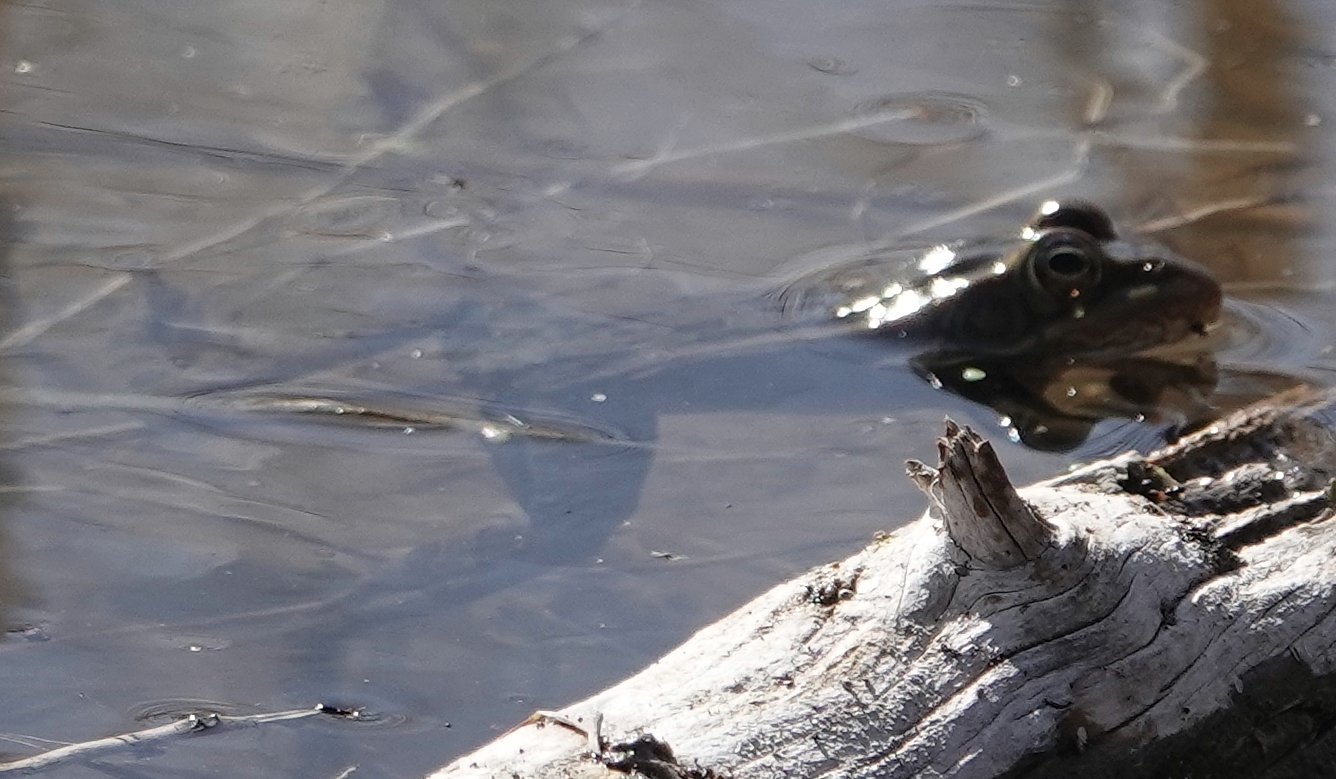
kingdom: Animalia
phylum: Chordata
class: Amphibia
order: Anura
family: Ranidae
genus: Lithobates
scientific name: Lithobates pipiens
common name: Northern leopard frog
